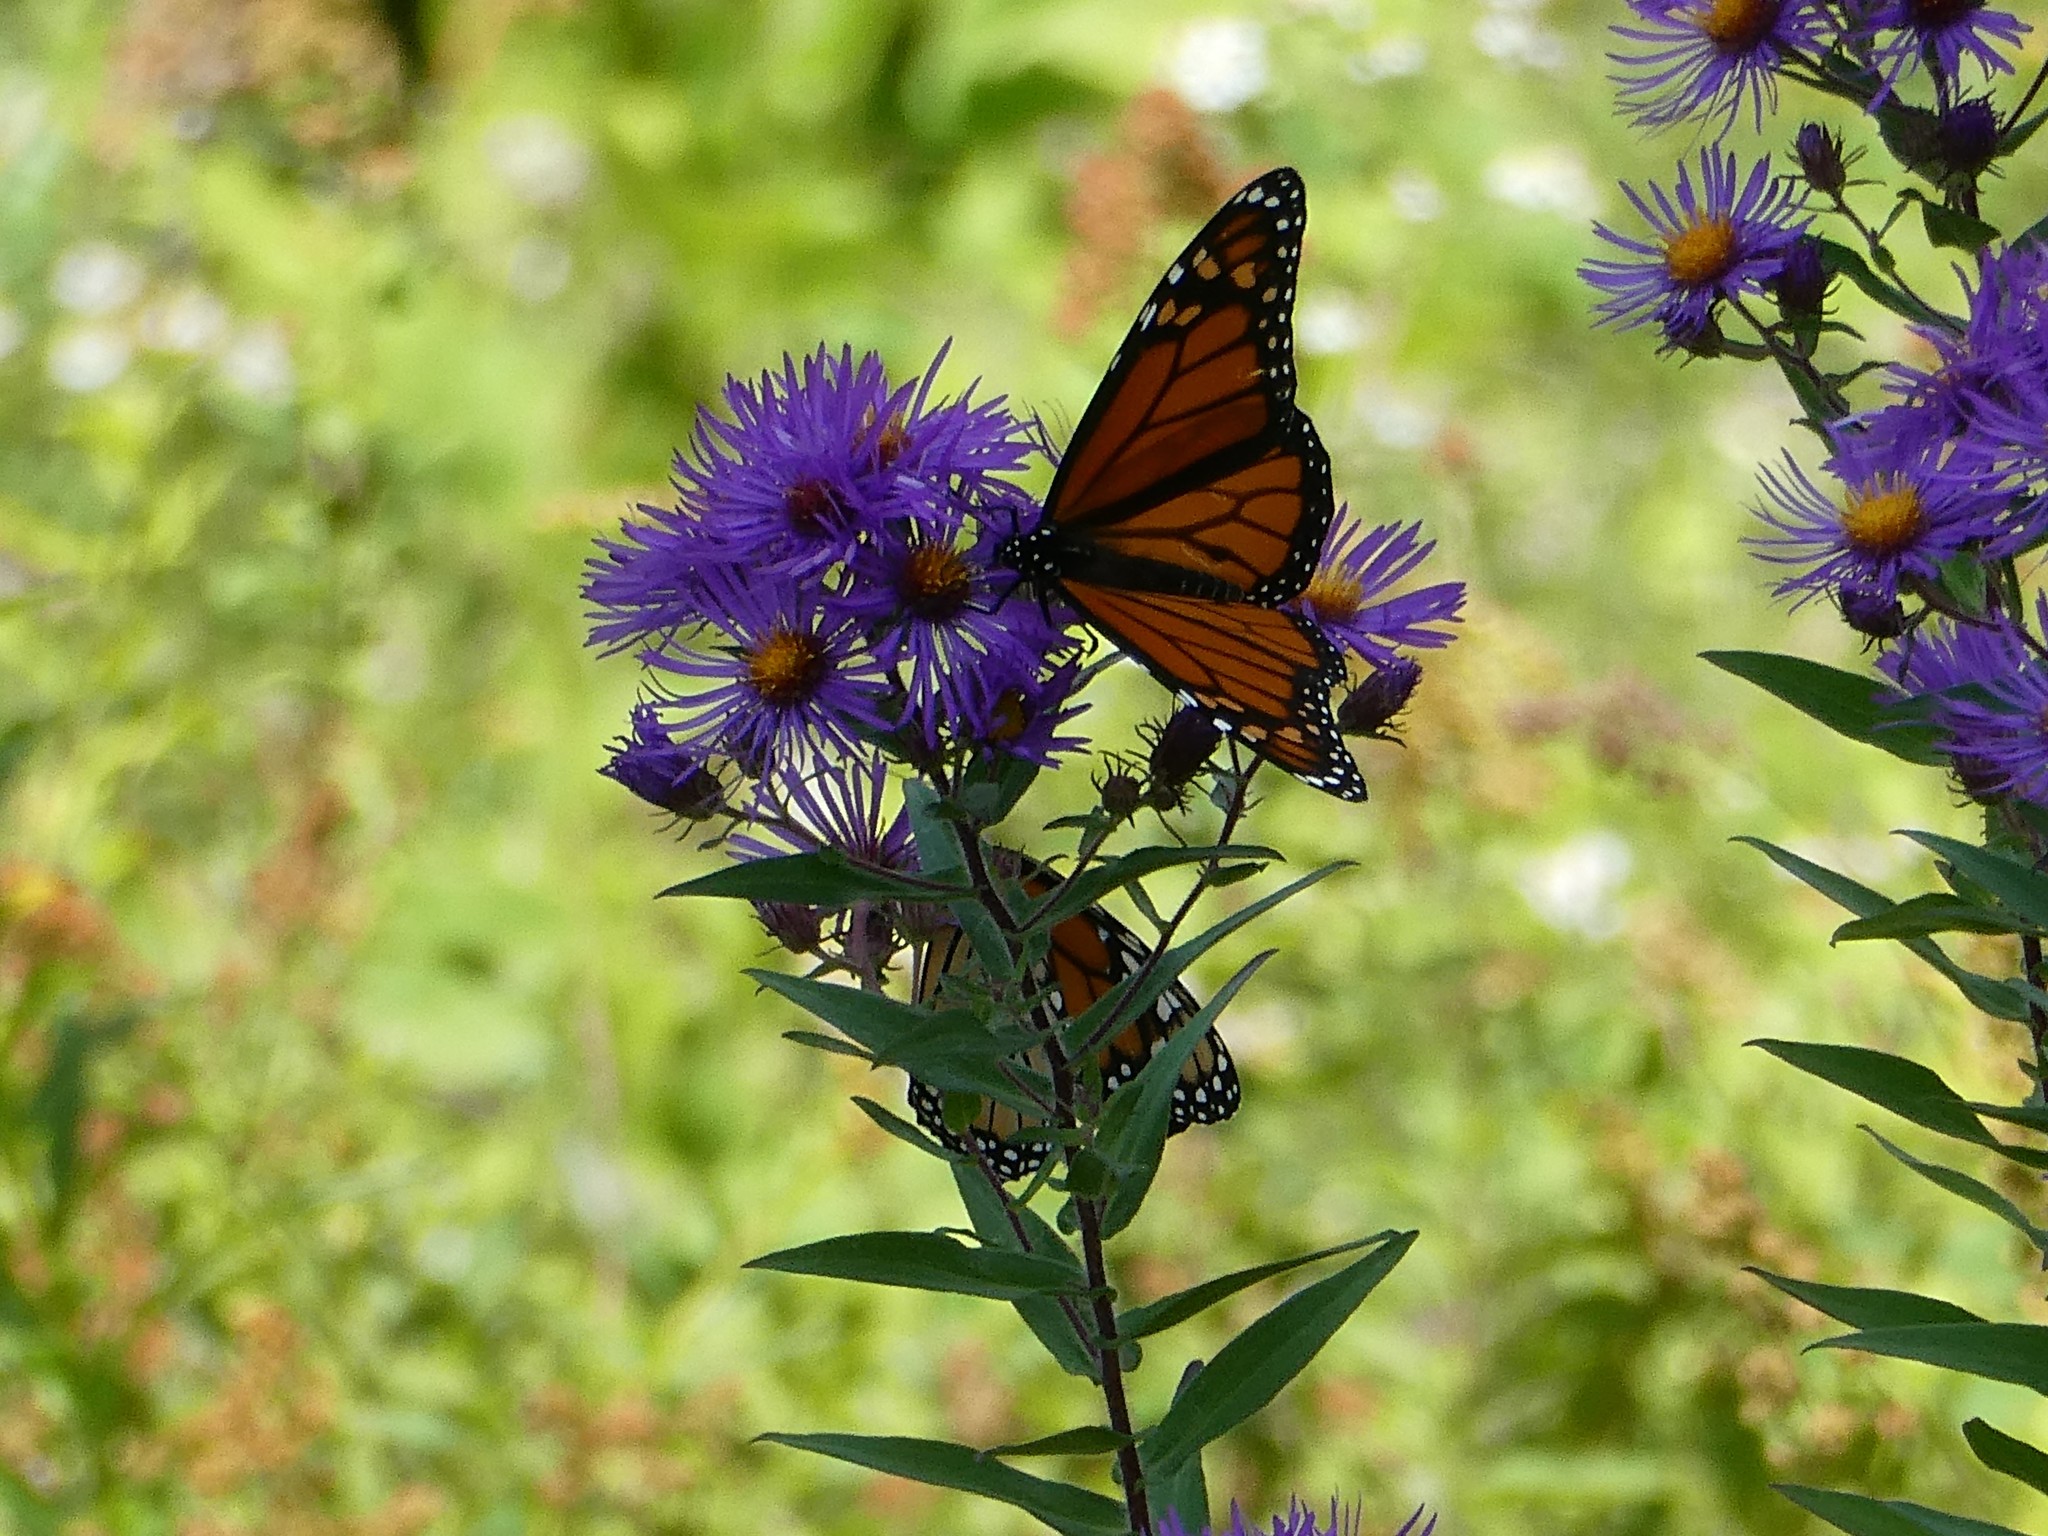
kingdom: Animalia
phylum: Arthropoda
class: Insecta
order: Lepidoptera
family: Nymphalidae
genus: Danaus
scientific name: Danaus plexippus
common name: Monarch
